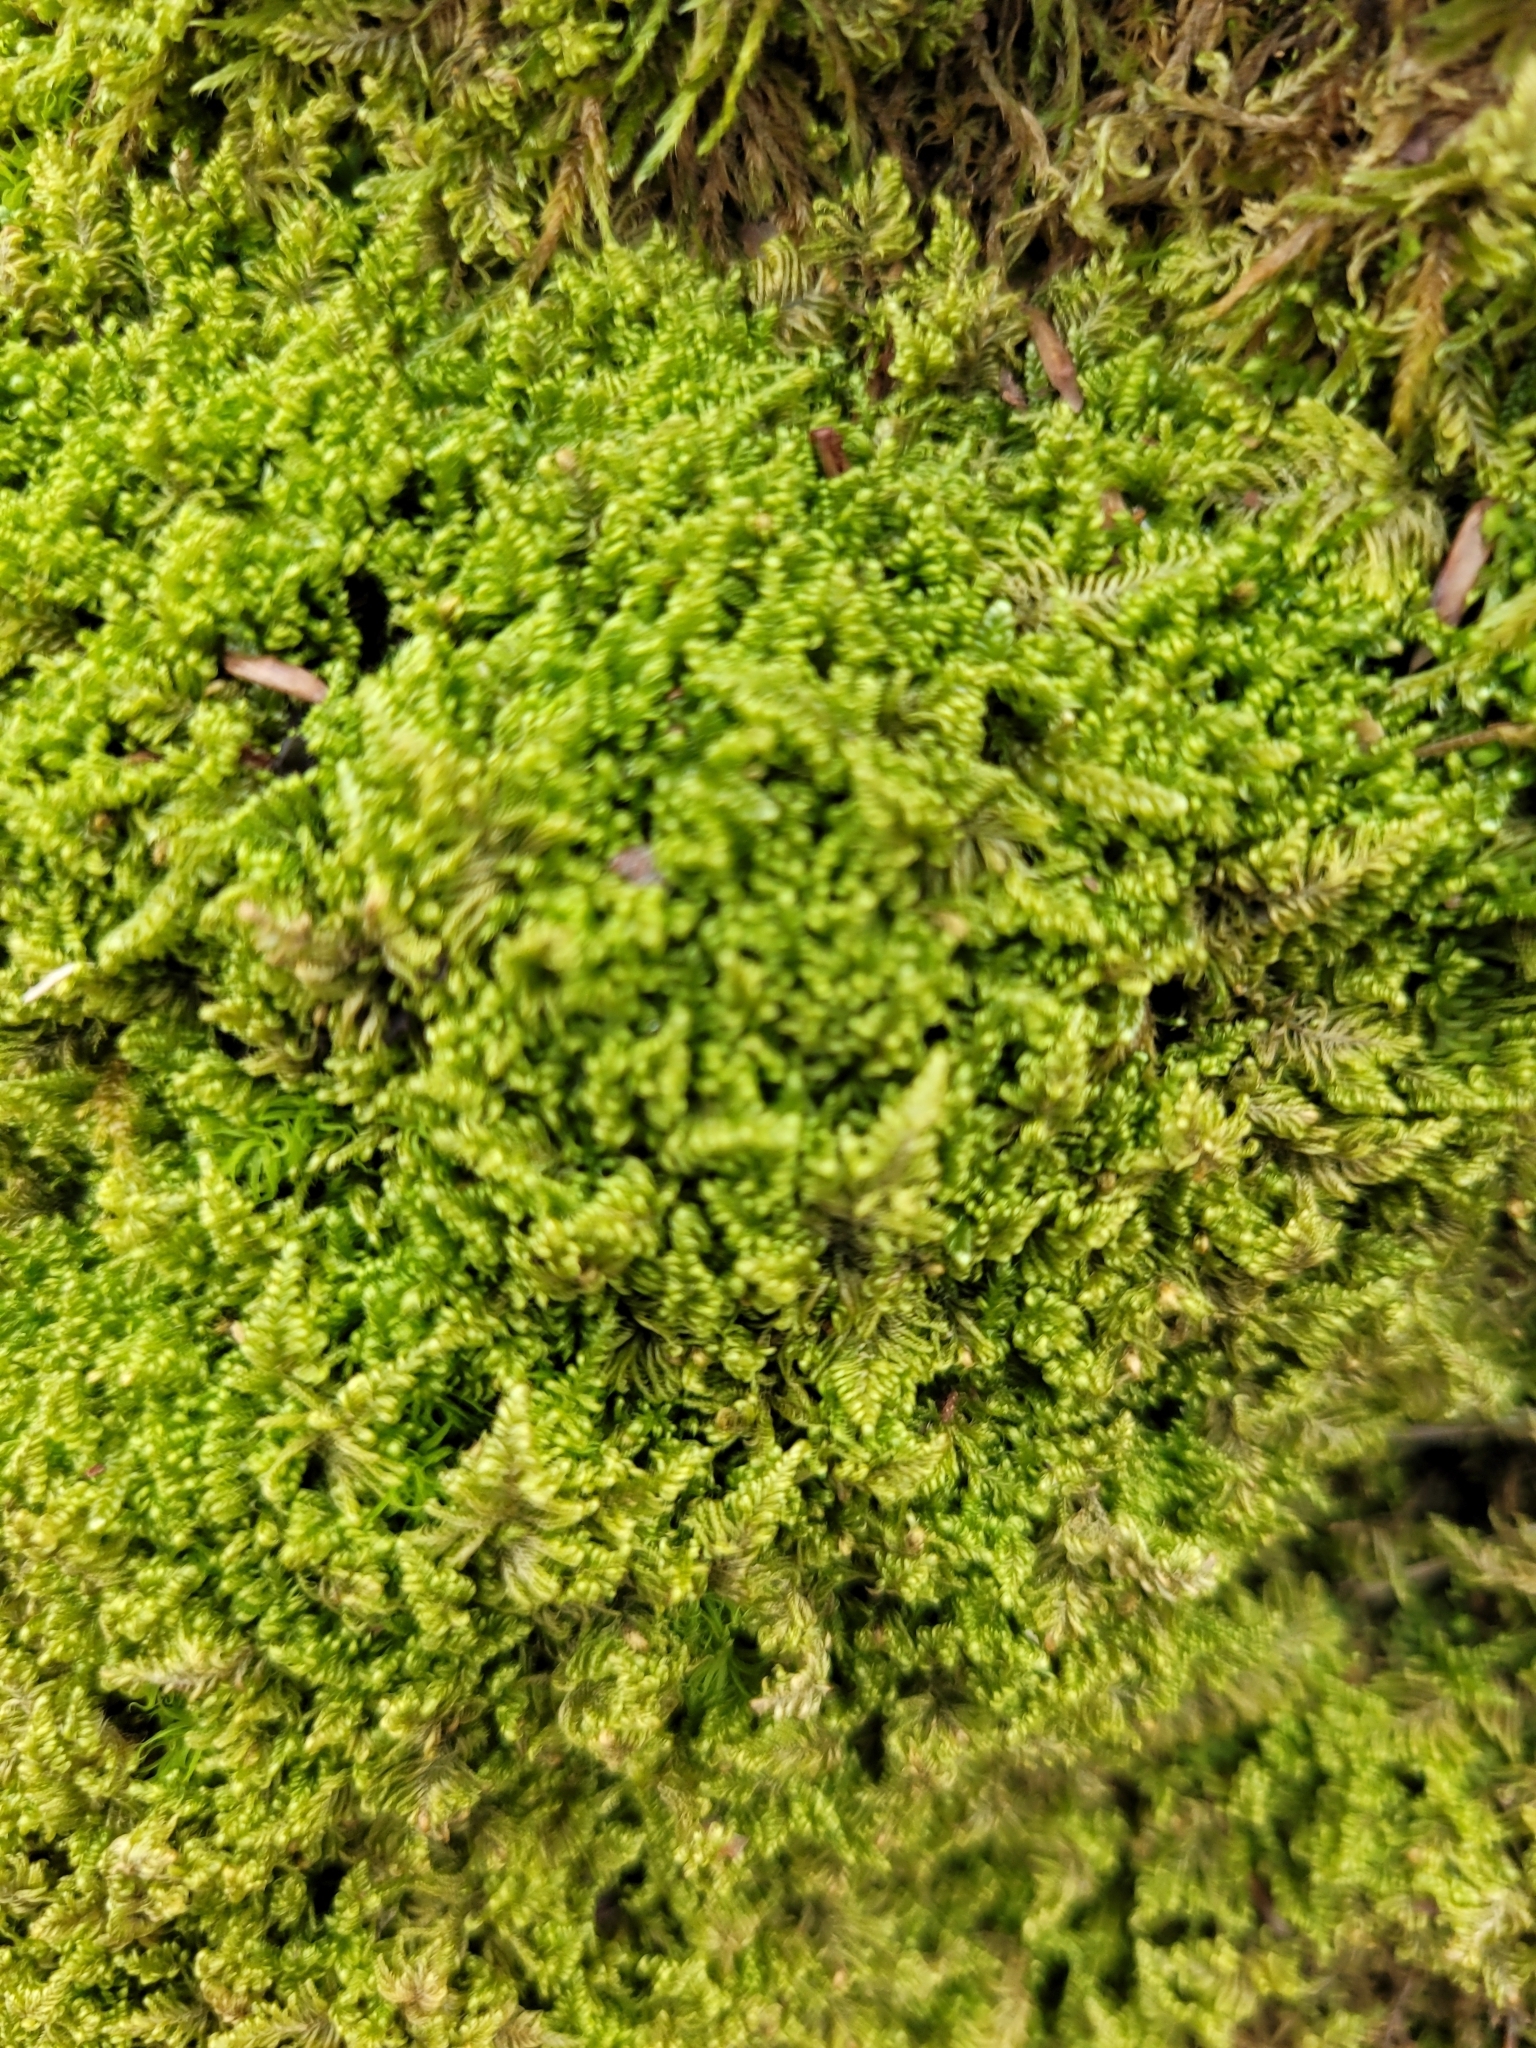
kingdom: Plantae
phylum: Bryophyta
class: Bryopsida
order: Hypnales
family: Myuriaceae
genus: Ctenidium
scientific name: Ctenidium molluscum
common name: Chalk comb-moss
